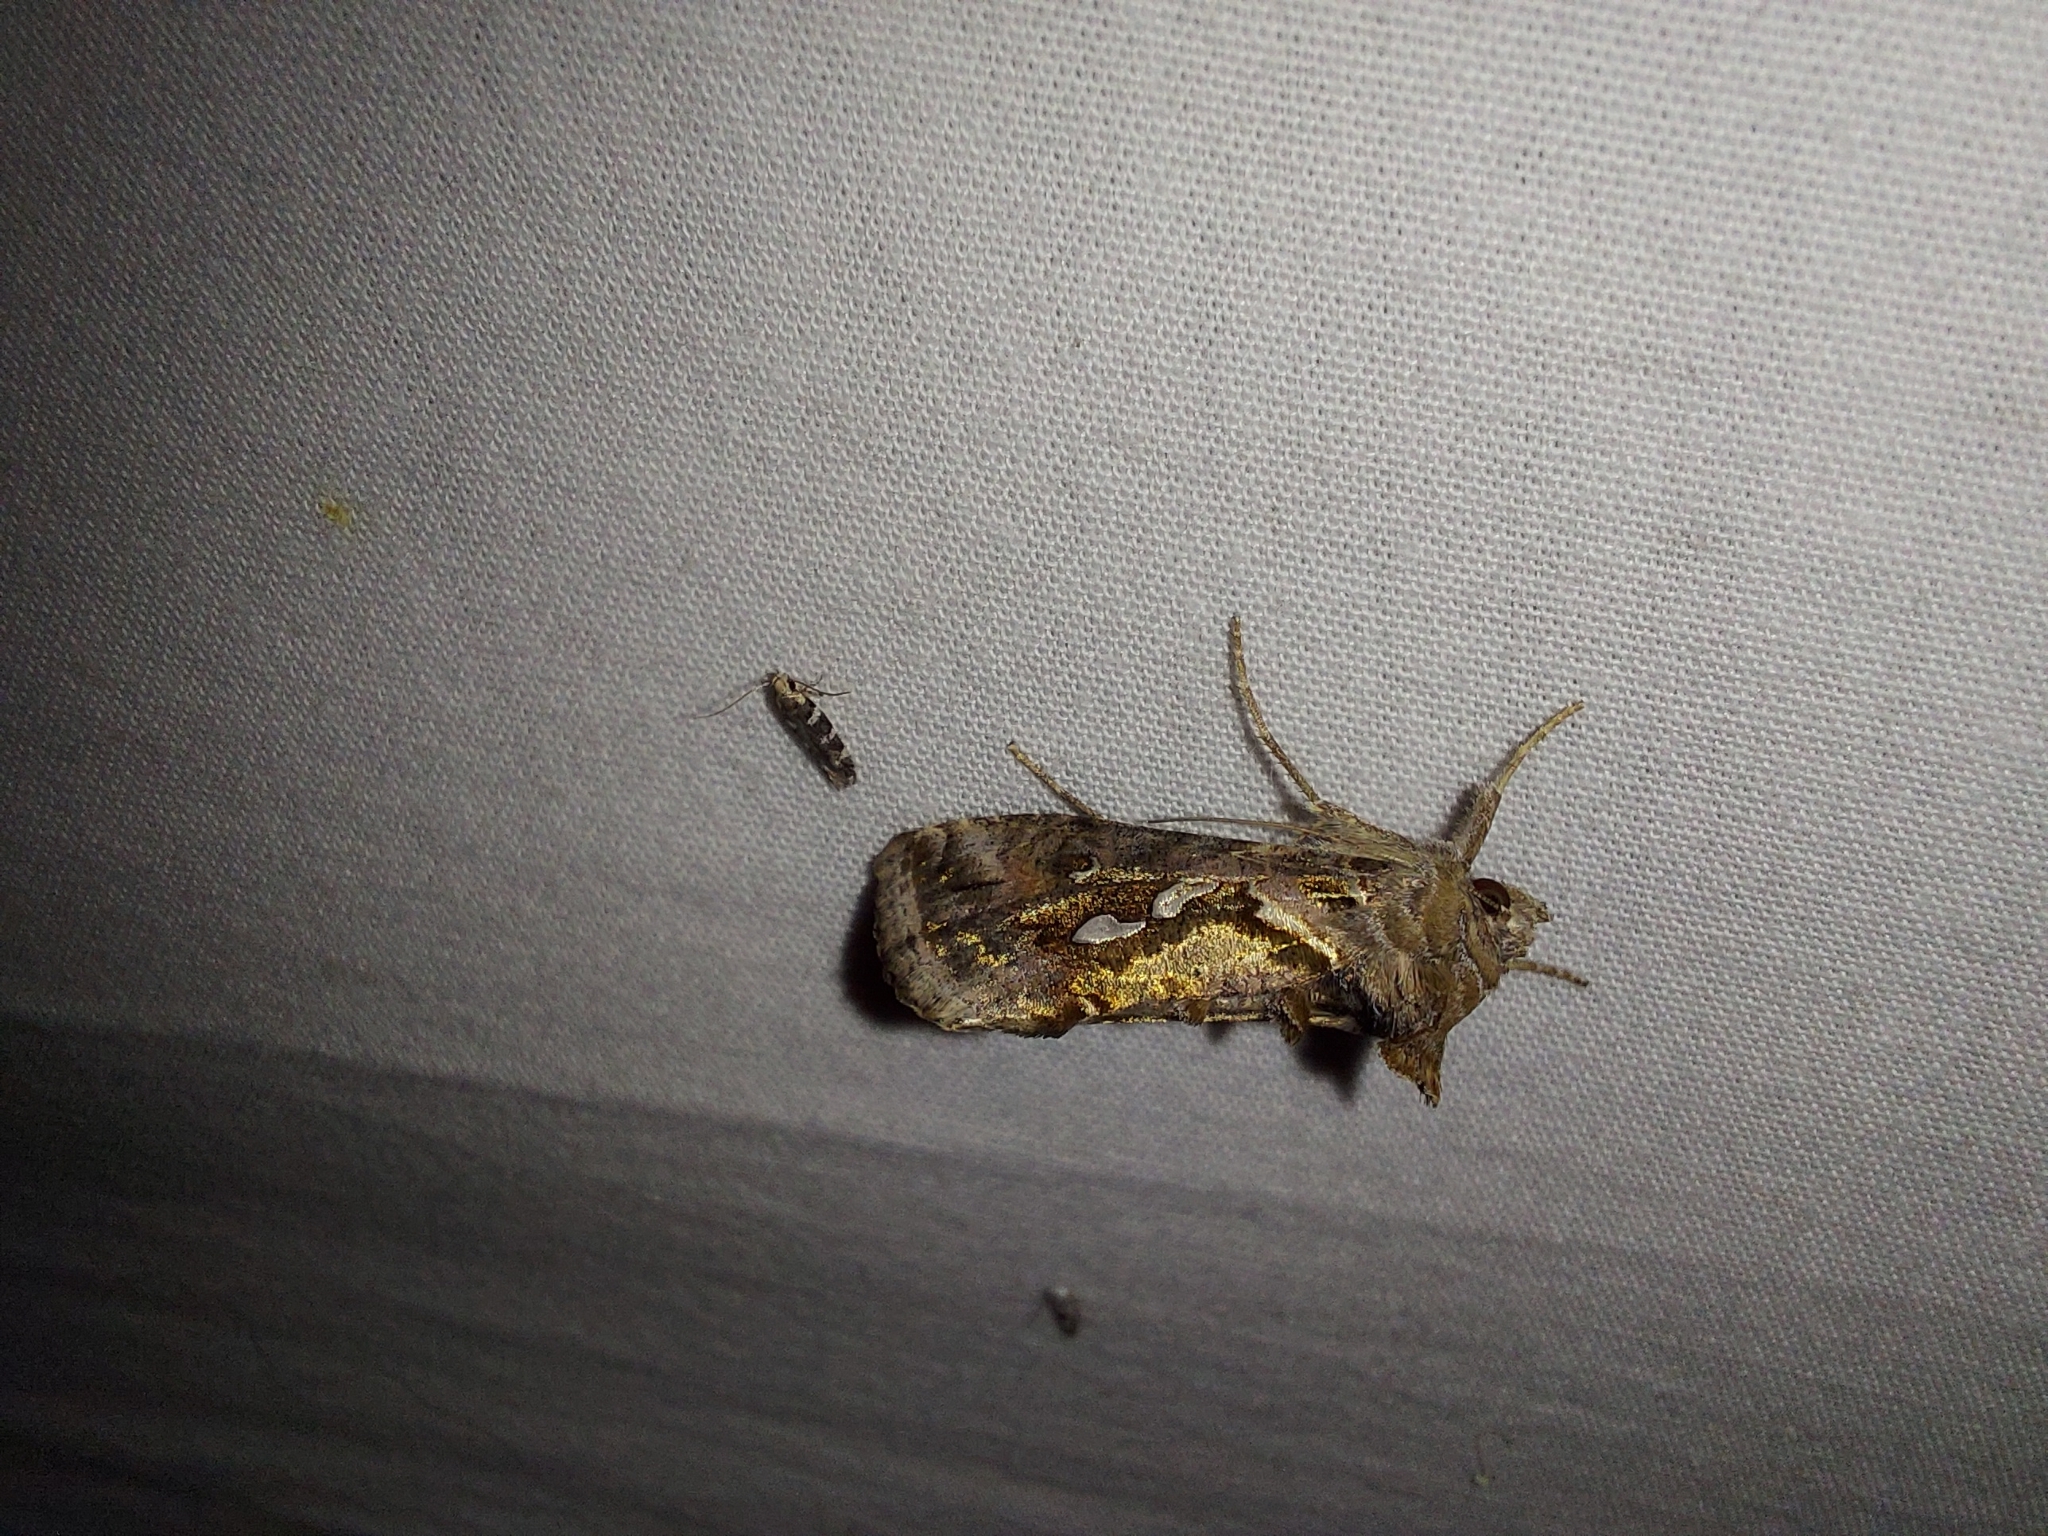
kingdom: Animalia
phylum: Arthropoda
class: Insecta
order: Lepidoptera
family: Noctuidae
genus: Chrysodeixis
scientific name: Chrysodeixis argentifera
